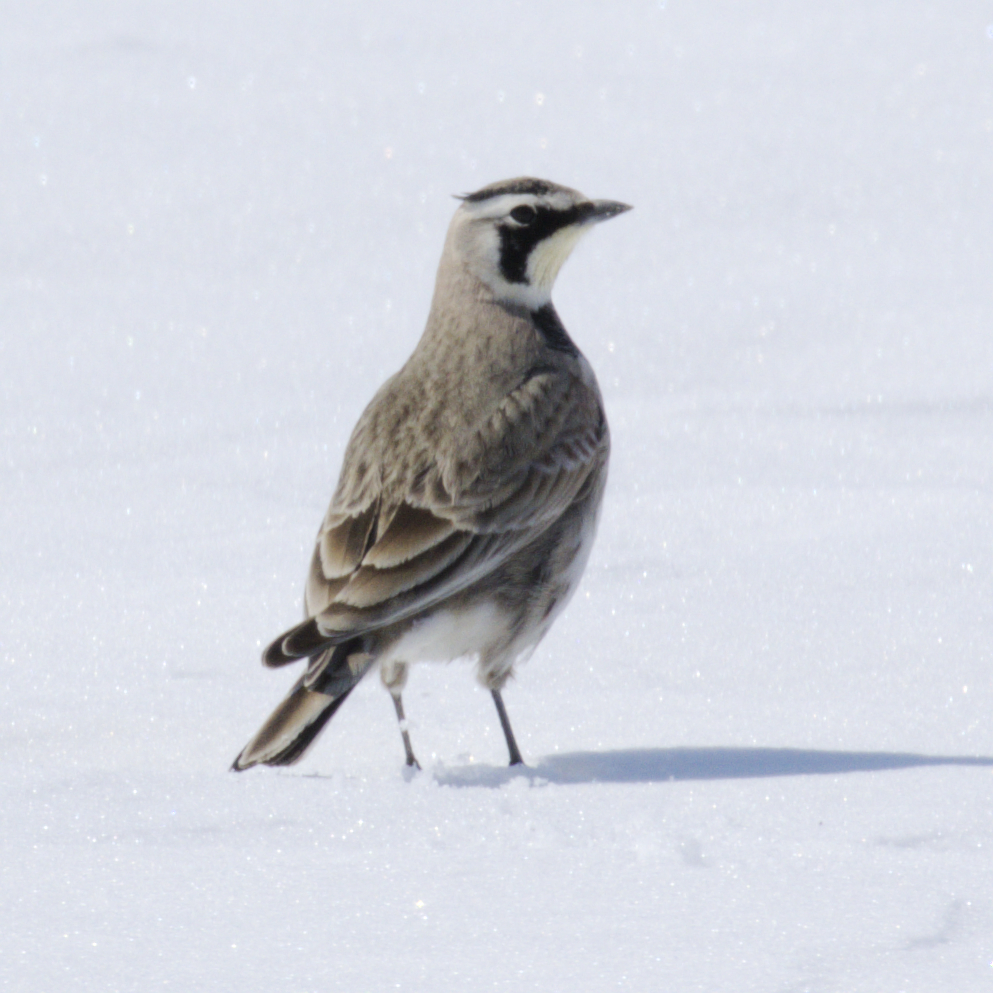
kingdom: Animalia
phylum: Chordata
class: Aves
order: Passeriformes
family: Alaudidae
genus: Eremophila
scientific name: Eremophila alpestris
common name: Horned lark
